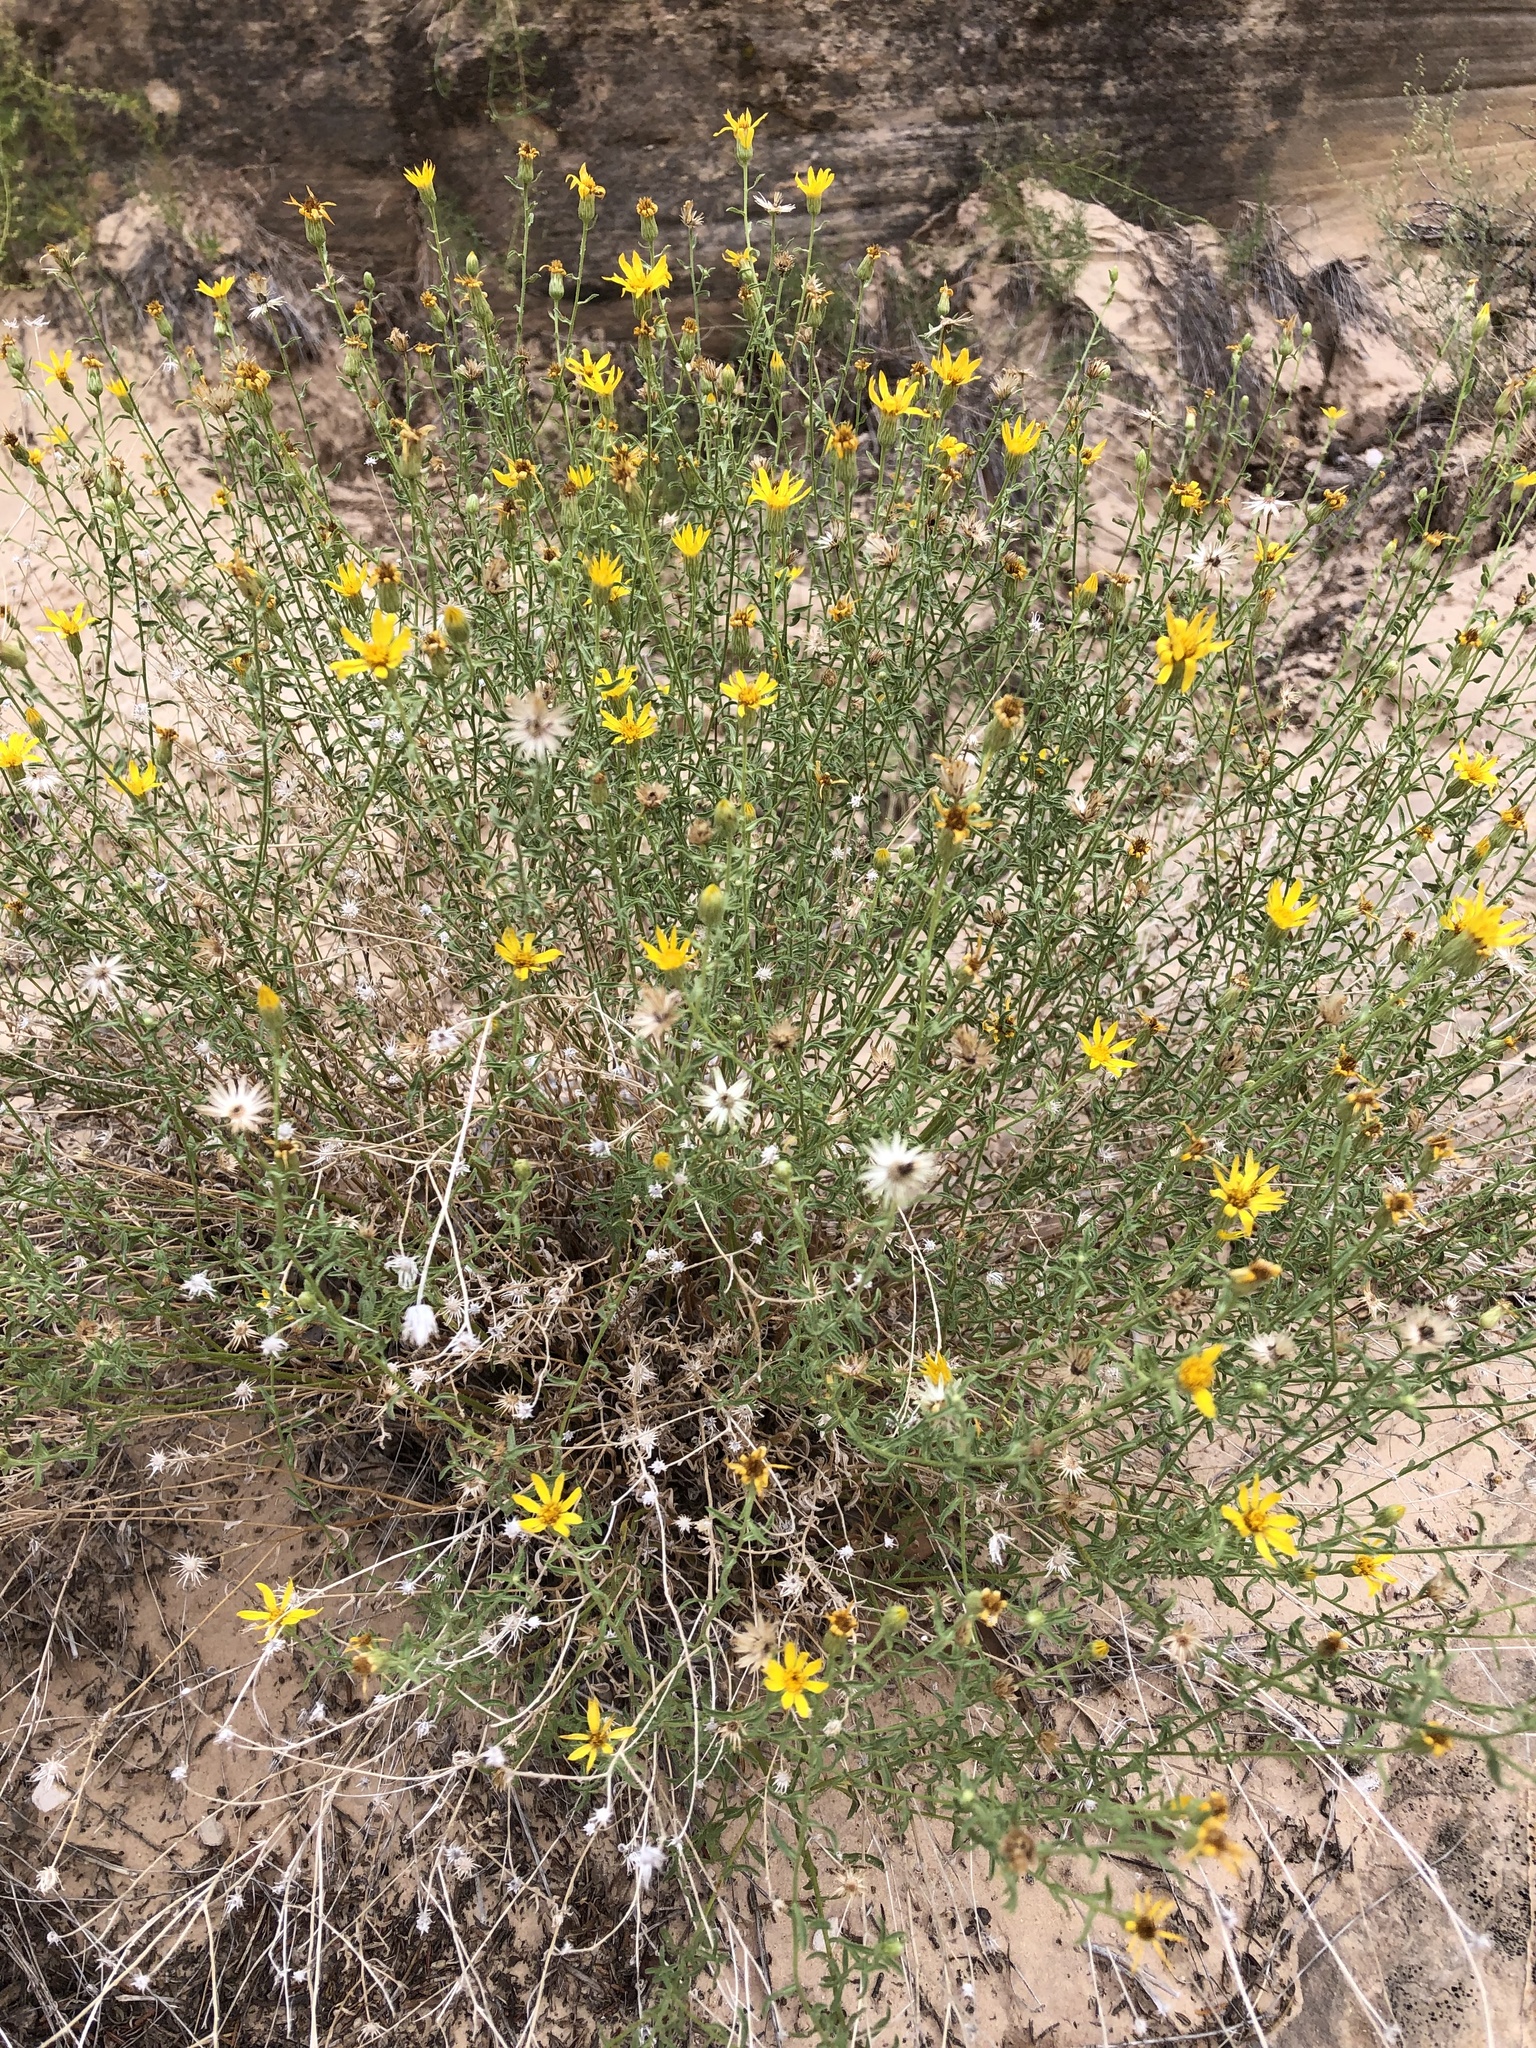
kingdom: Plantae
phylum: Tracheophyta
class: Magnoliopsida
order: Asterales
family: Asteraceae
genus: Heterotheca
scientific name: Heterotheca polothrix
